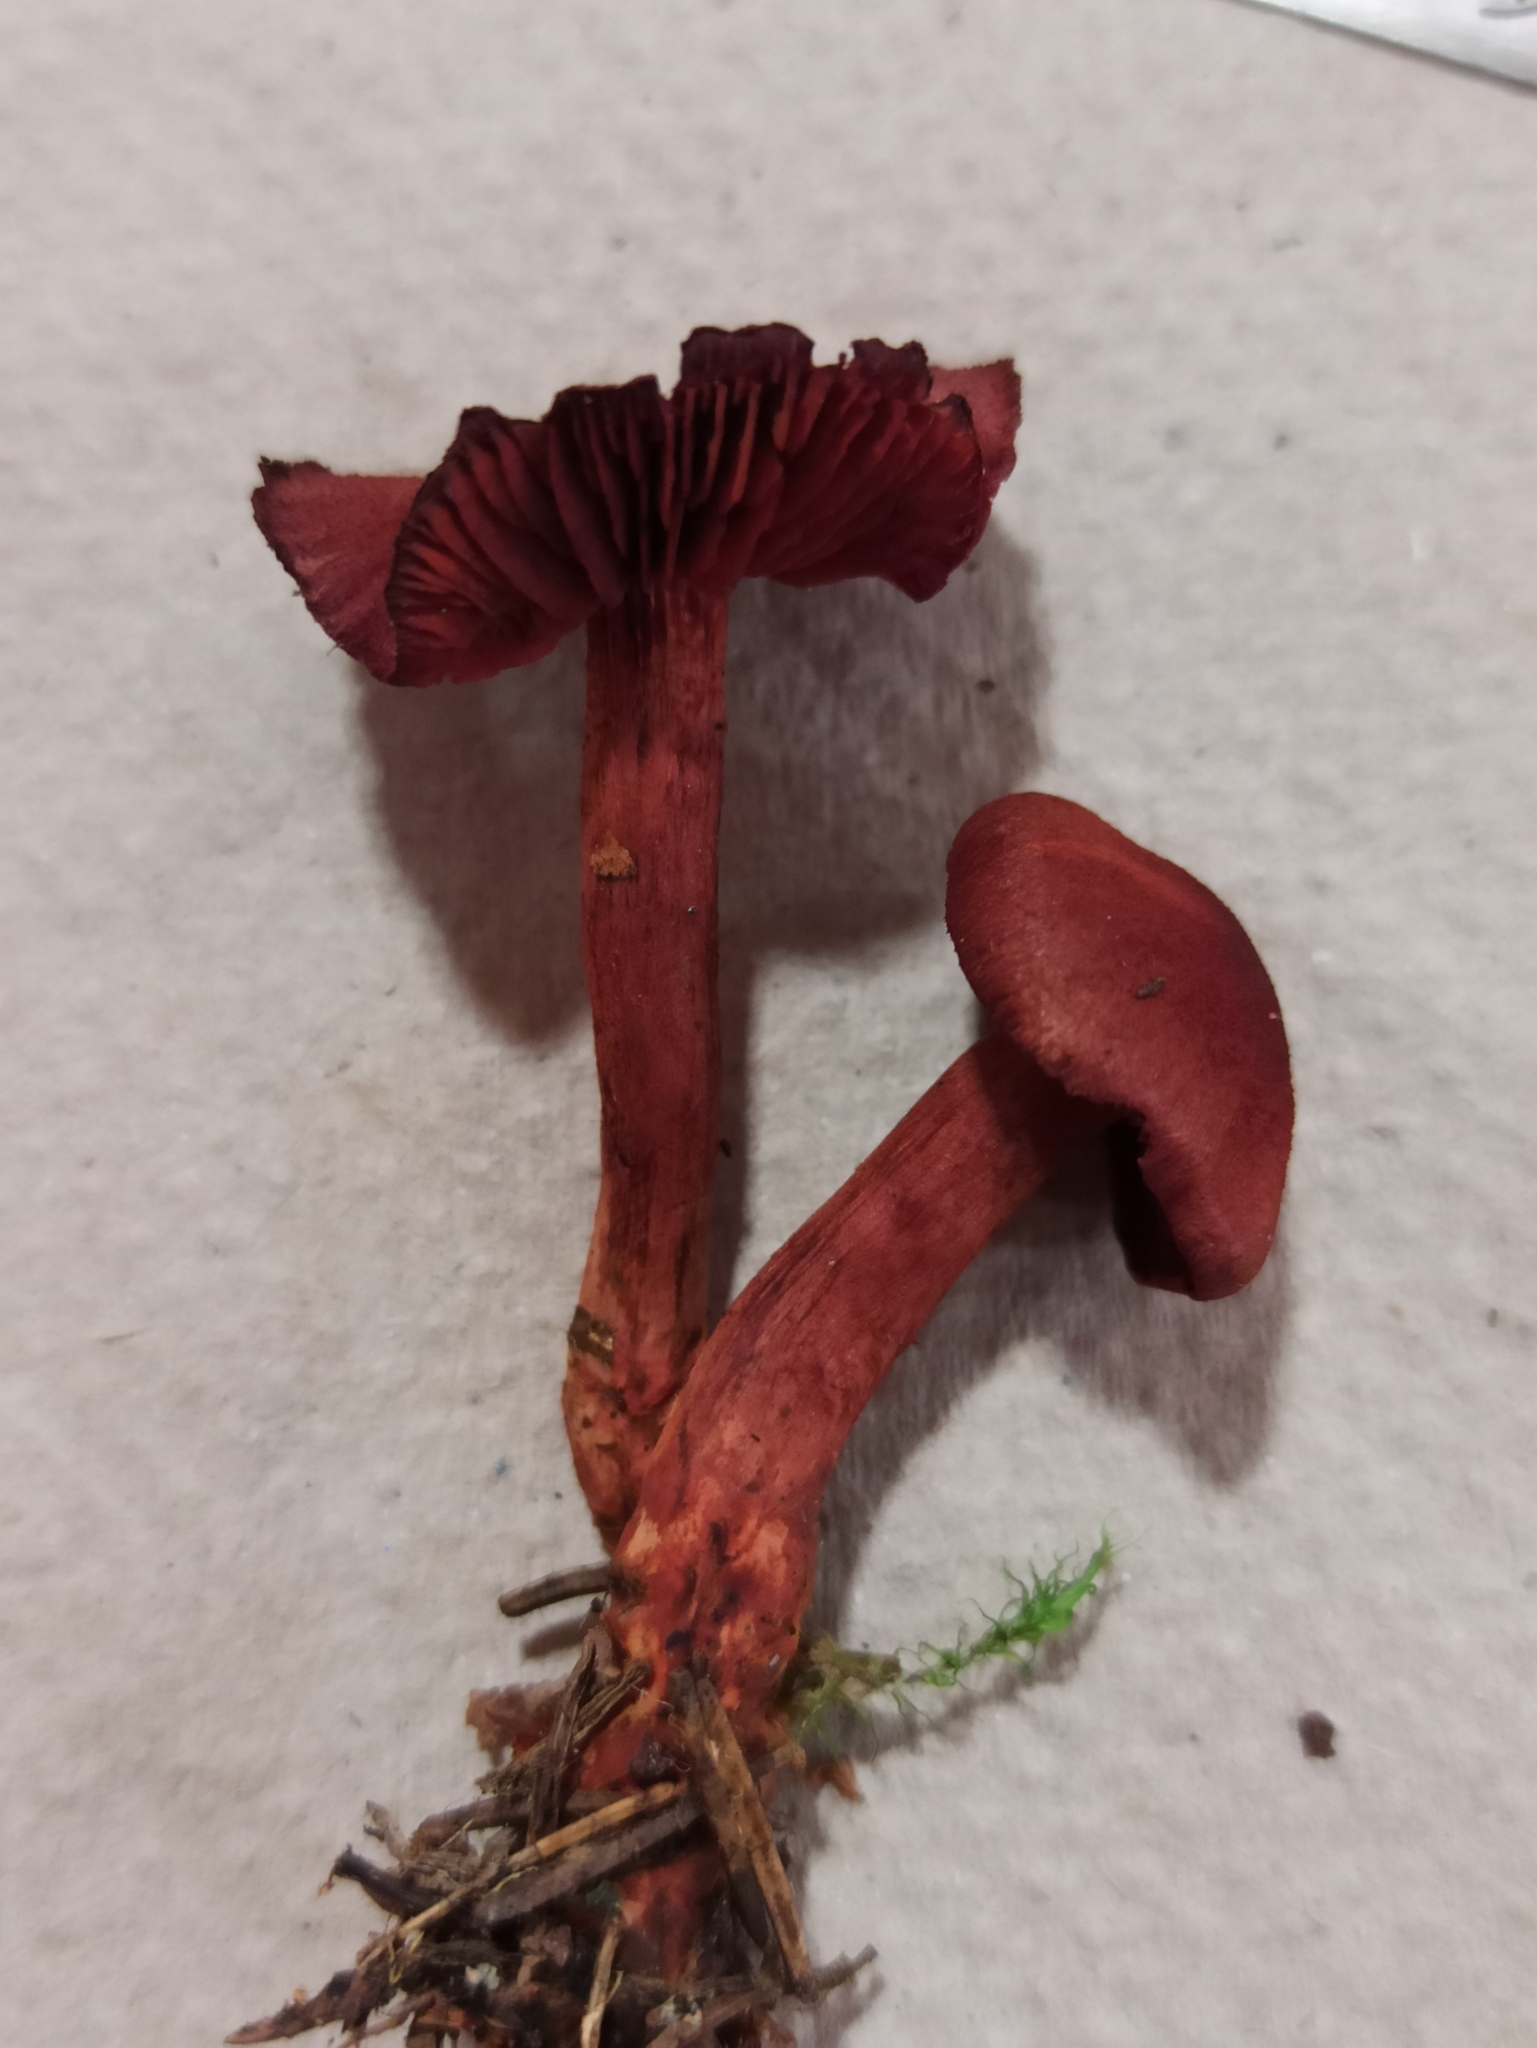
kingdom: Fungi
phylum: Basidiomycota
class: Agaricomycetes
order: Agaricales
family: Cortinariaceae
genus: Cortinarius
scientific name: Cortinarius sanguineus
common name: Bloodred webcap
